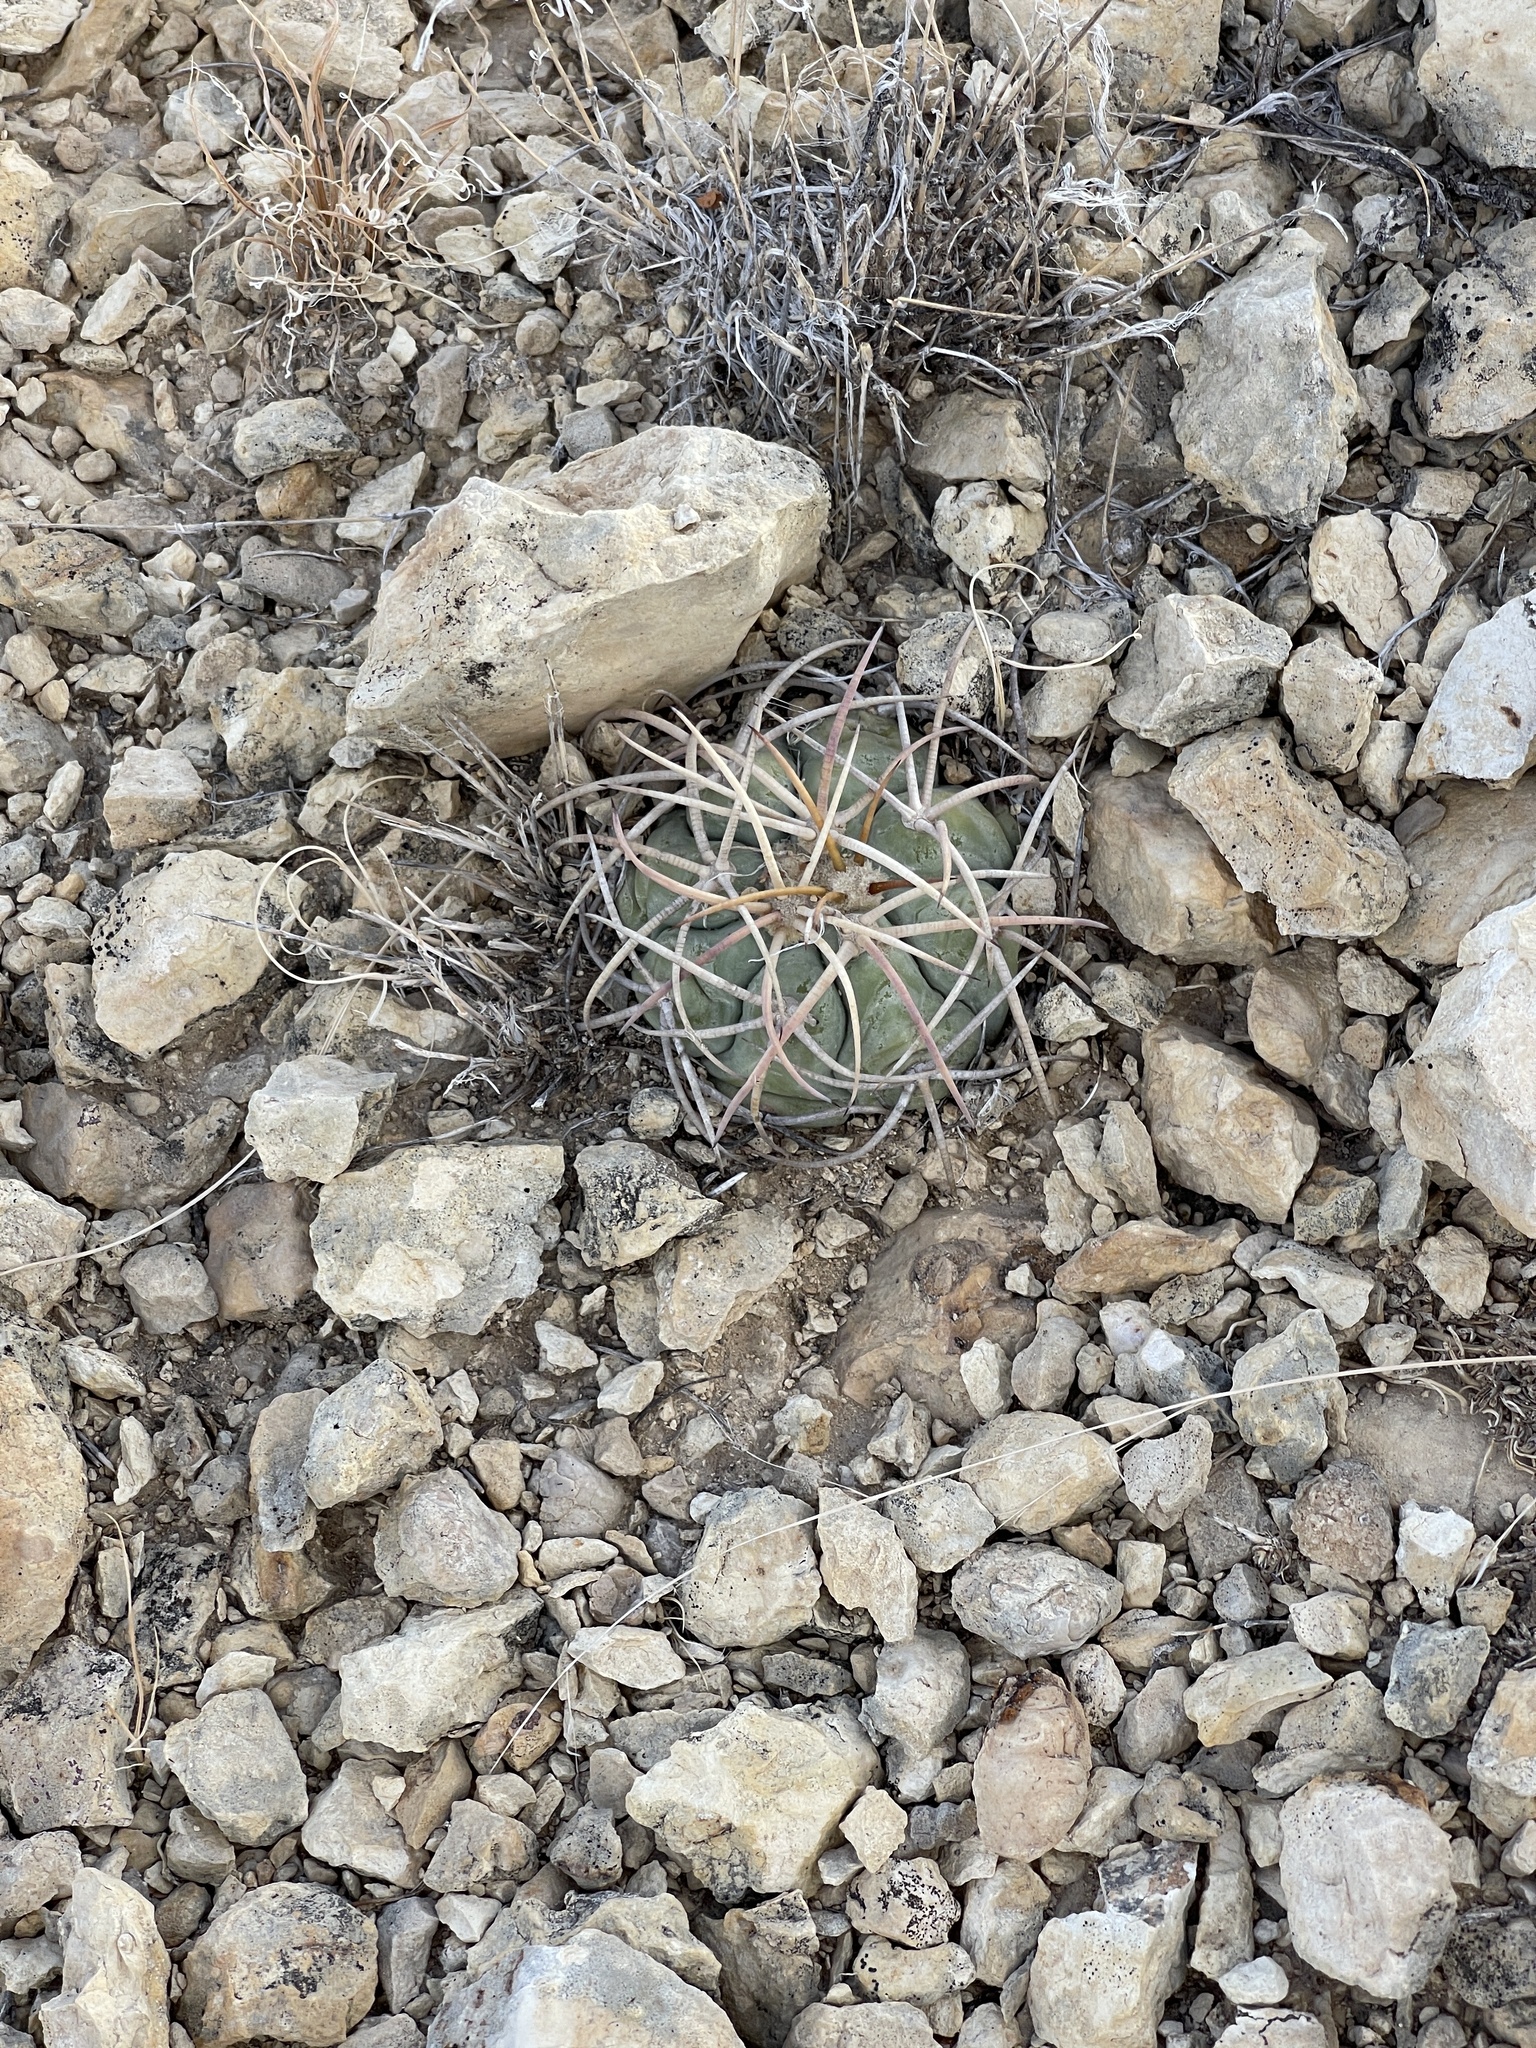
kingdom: Plantae
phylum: Tracheophyta
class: Magnoliopsida
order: Caryophyllales
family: Cactaceae
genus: Echinocactus
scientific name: Echinocactus horizonthalonius
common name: Devilshead
